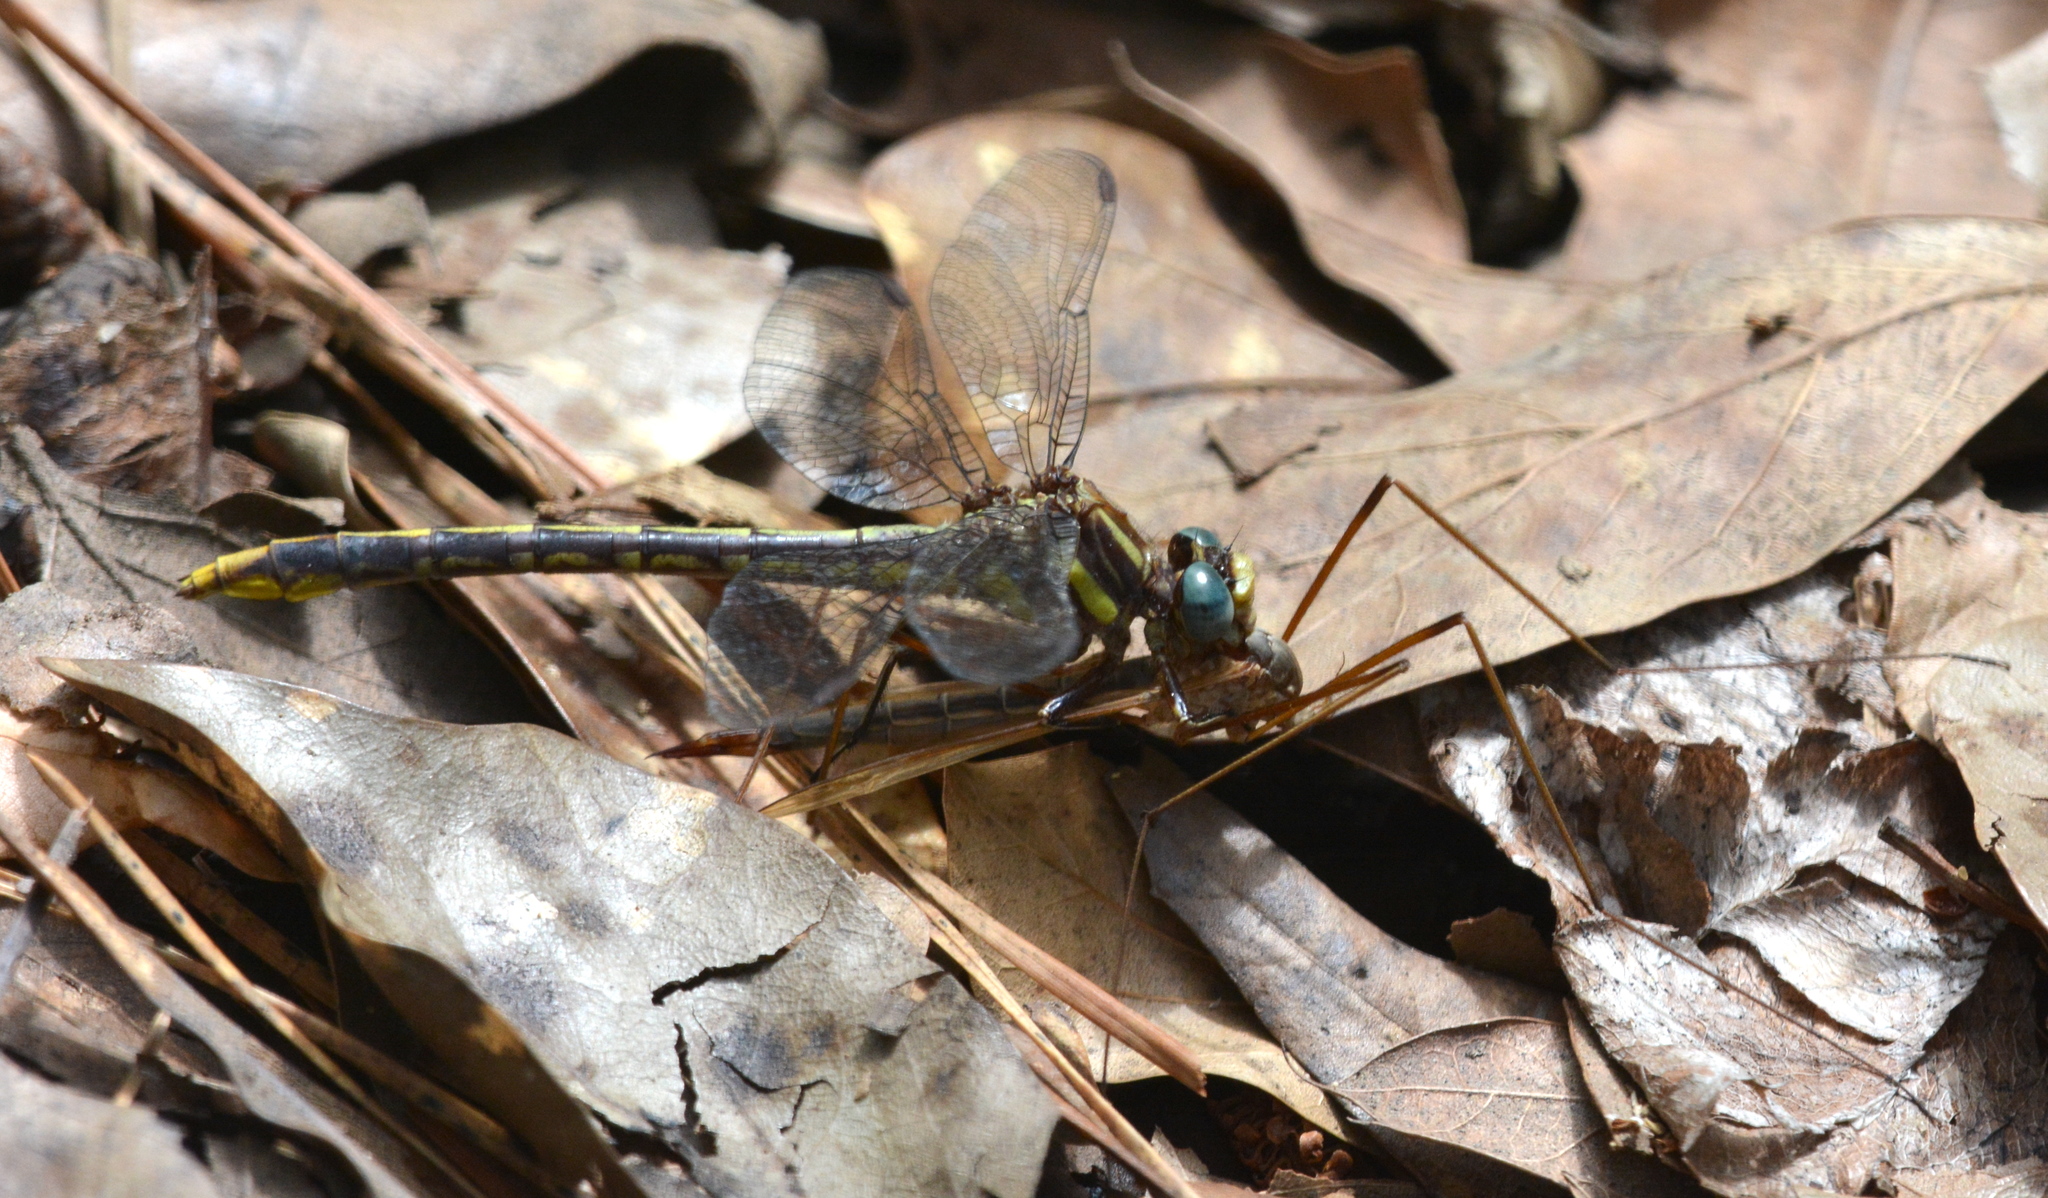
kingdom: Animalia
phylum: Arthropoda
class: Insecta
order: Odonata
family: Gomphidae
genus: Phanogomphus
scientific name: Phanogomphus exilis
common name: Lancet clubtail
